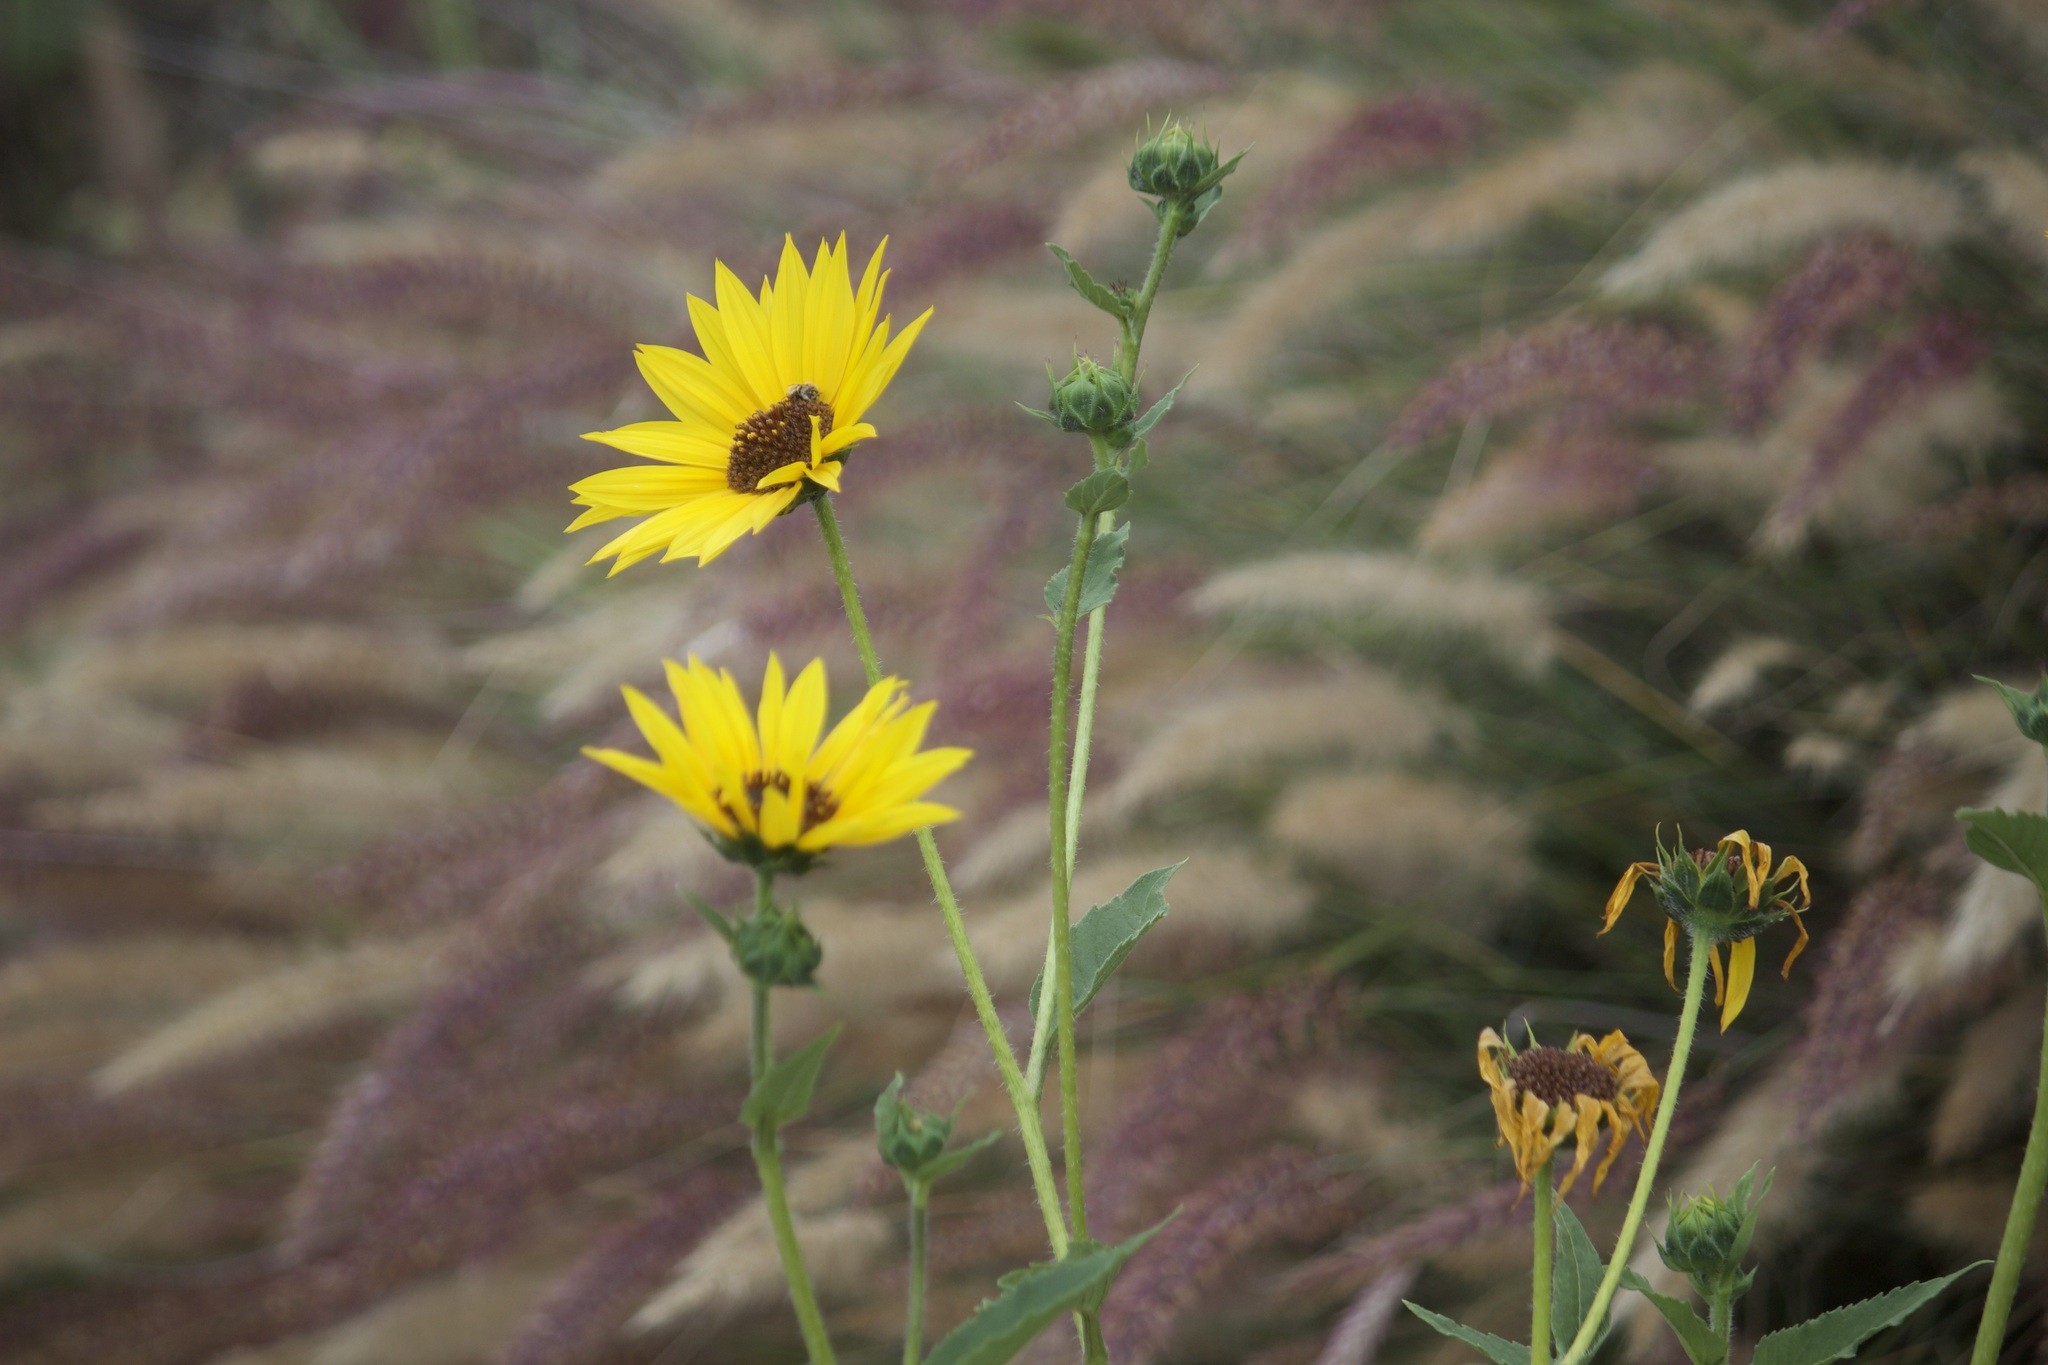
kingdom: Plantae
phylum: Tracheophyta
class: Magnoliopsida
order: Asterales
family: Asteraceae
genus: Helianthus
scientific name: Helianthus annuus
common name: Sunflower
